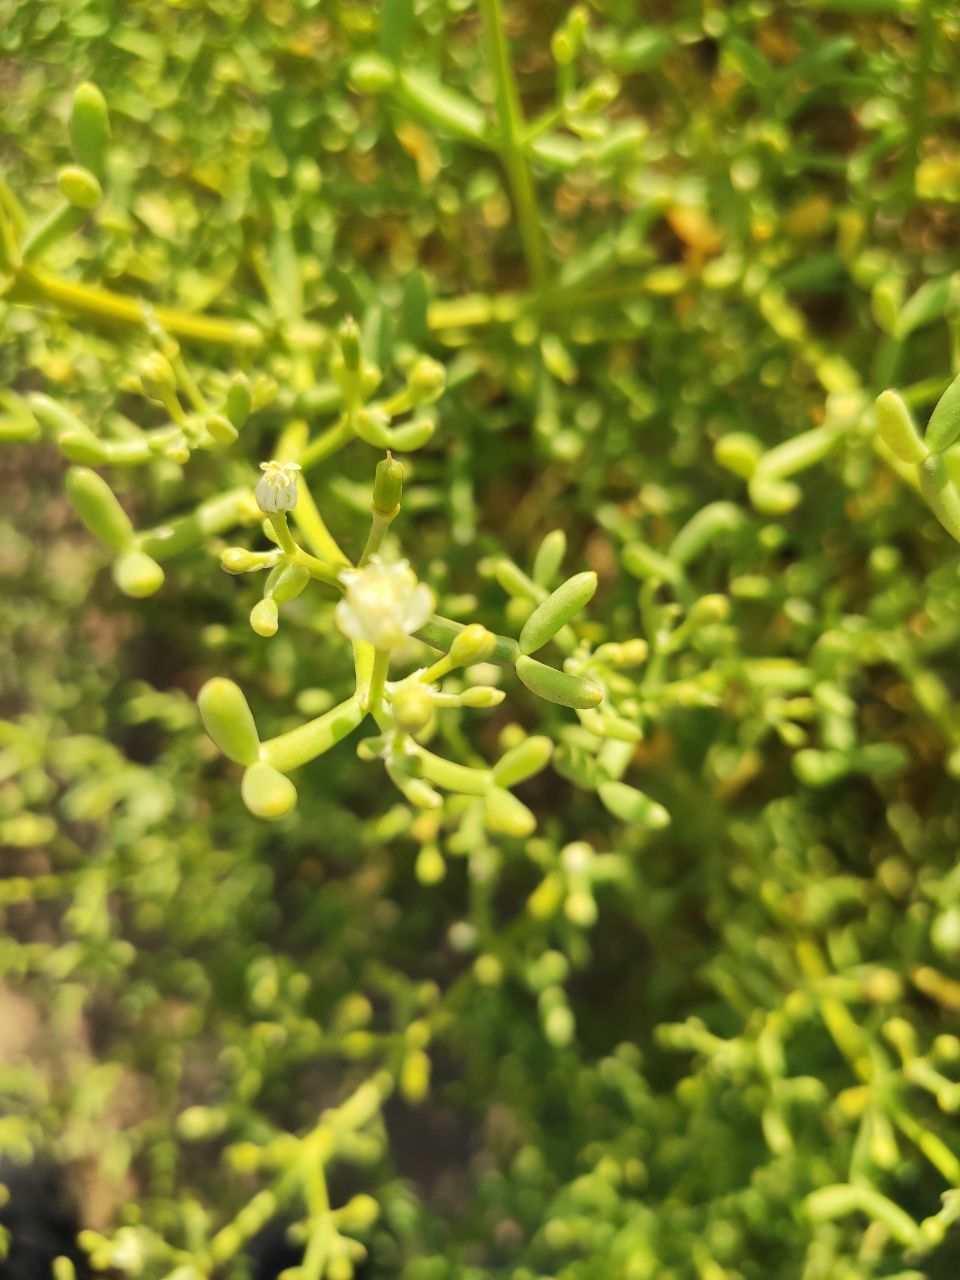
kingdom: Plantae
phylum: Tracheophyta
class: Magnoliopsida
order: Zygophyllales
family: Zygophyllaceae
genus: Tetraena
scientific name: Tetraena simplex
